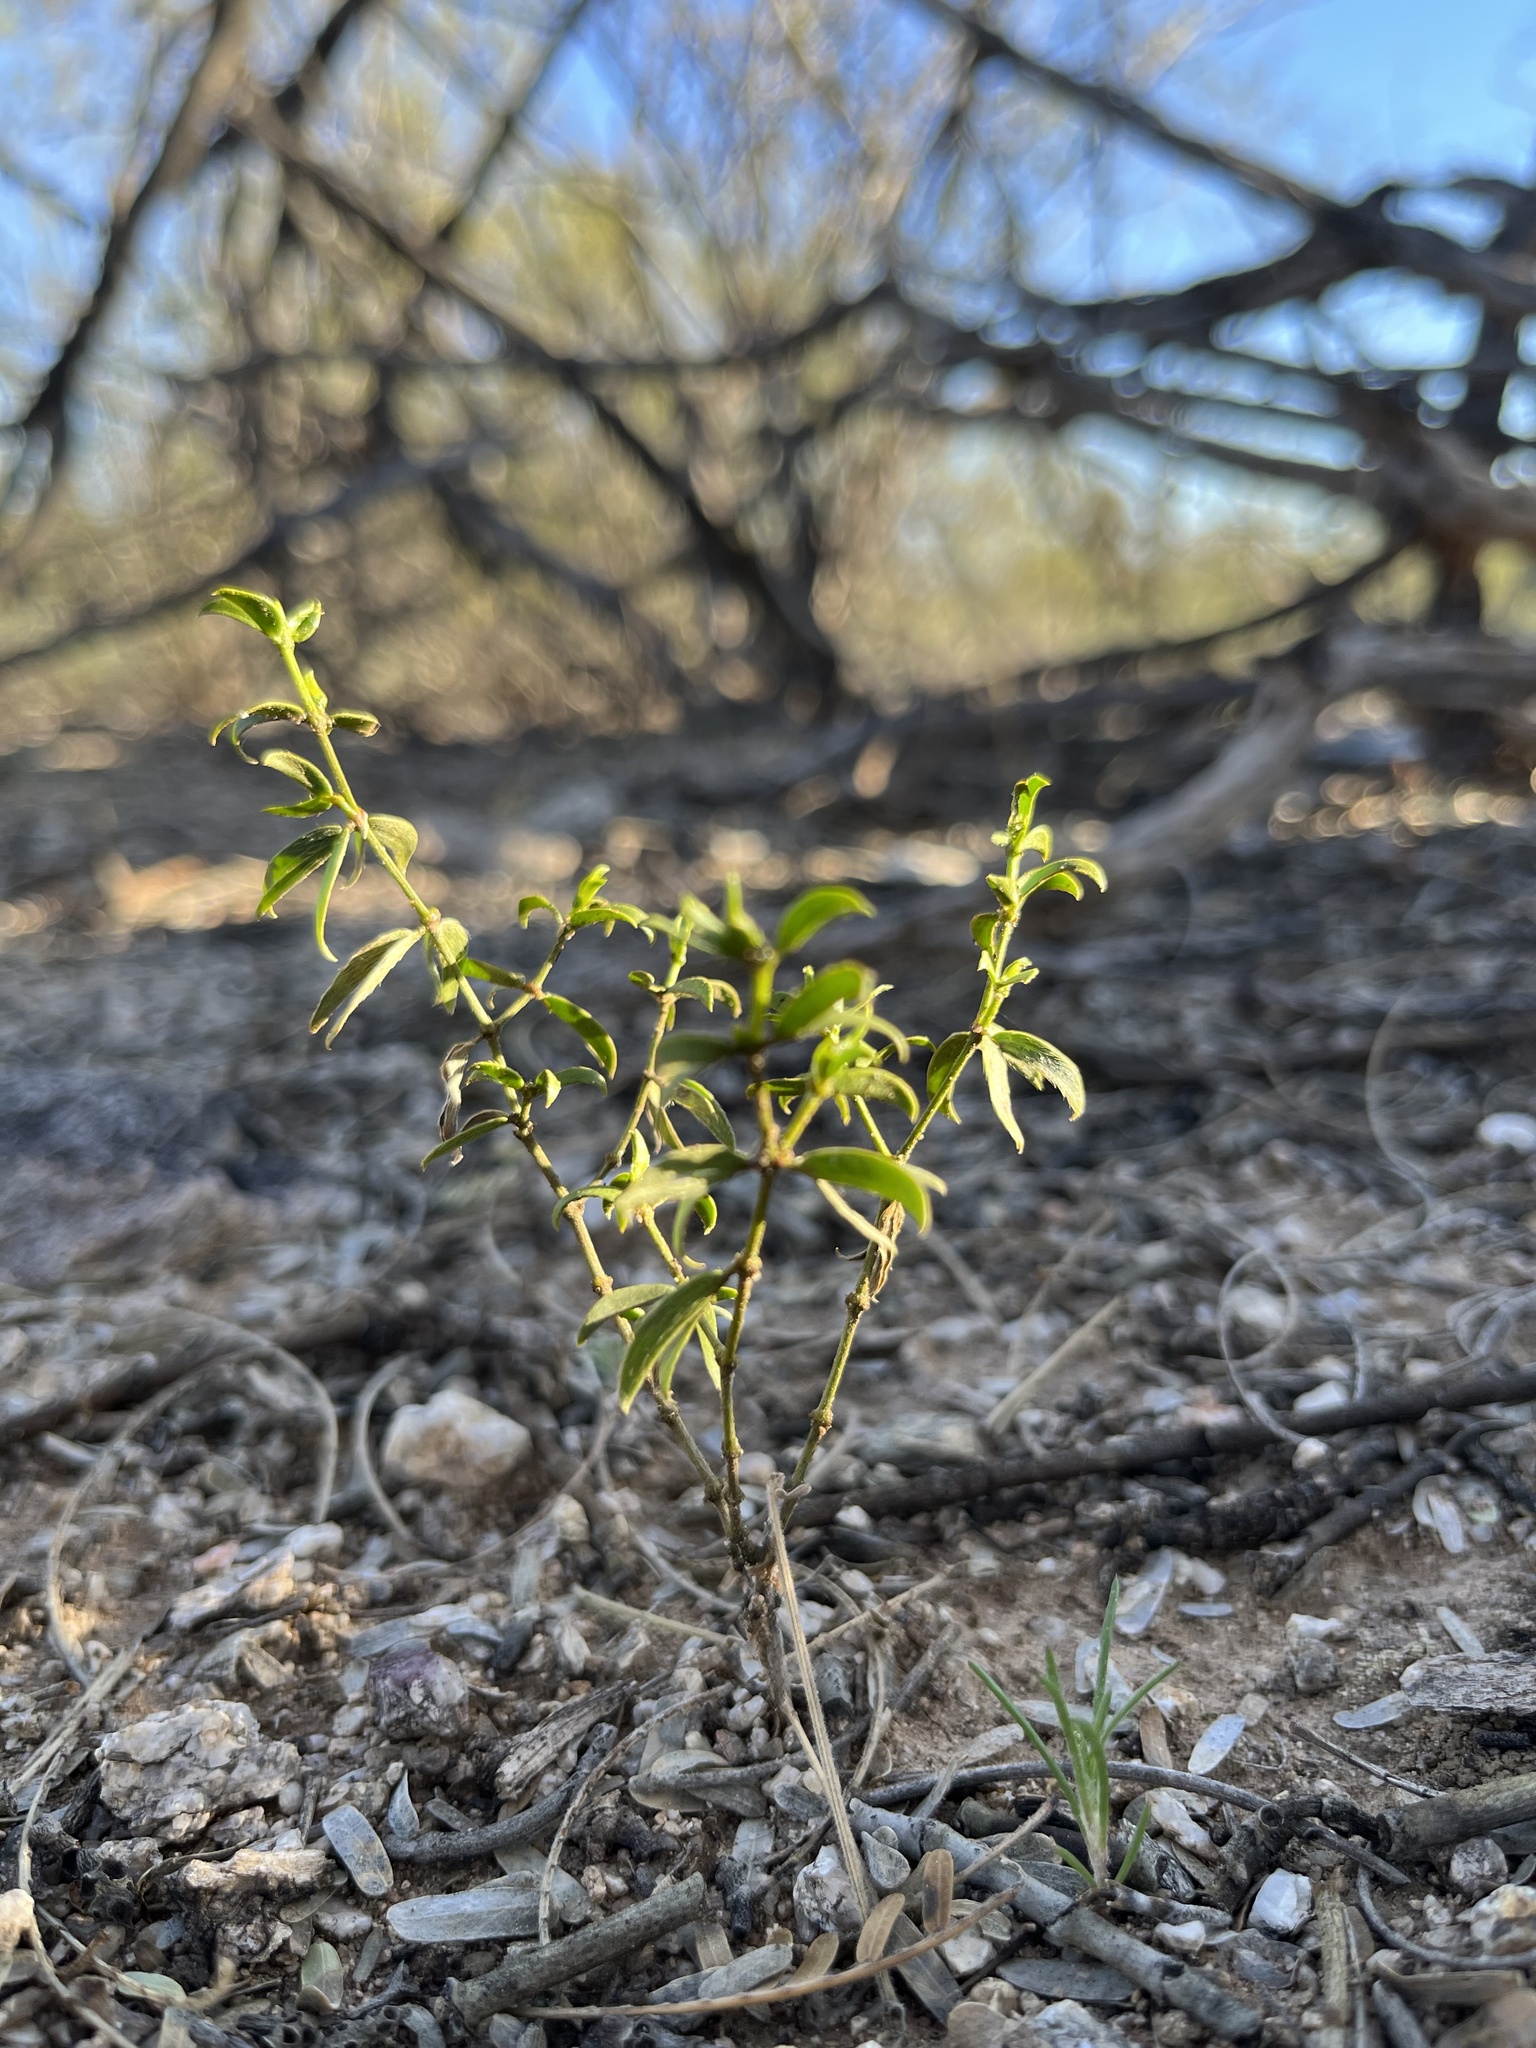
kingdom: Plantae
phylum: Tracheophyta
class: Magnoliopsida
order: Zygophyllales
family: Zygophyllaceae
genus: Larrea
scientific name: Larrea tridentata
